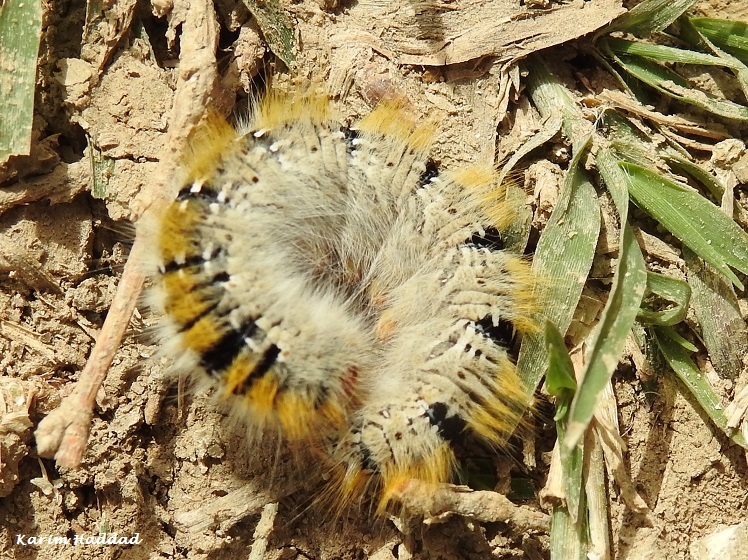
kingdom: Animalia
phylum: Arthropoda
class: Insecta
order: Lepidoptera
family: Lasiocampidae
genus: Lasiocampa
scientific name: Lasiocampa trifolii
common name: Grass eggar
